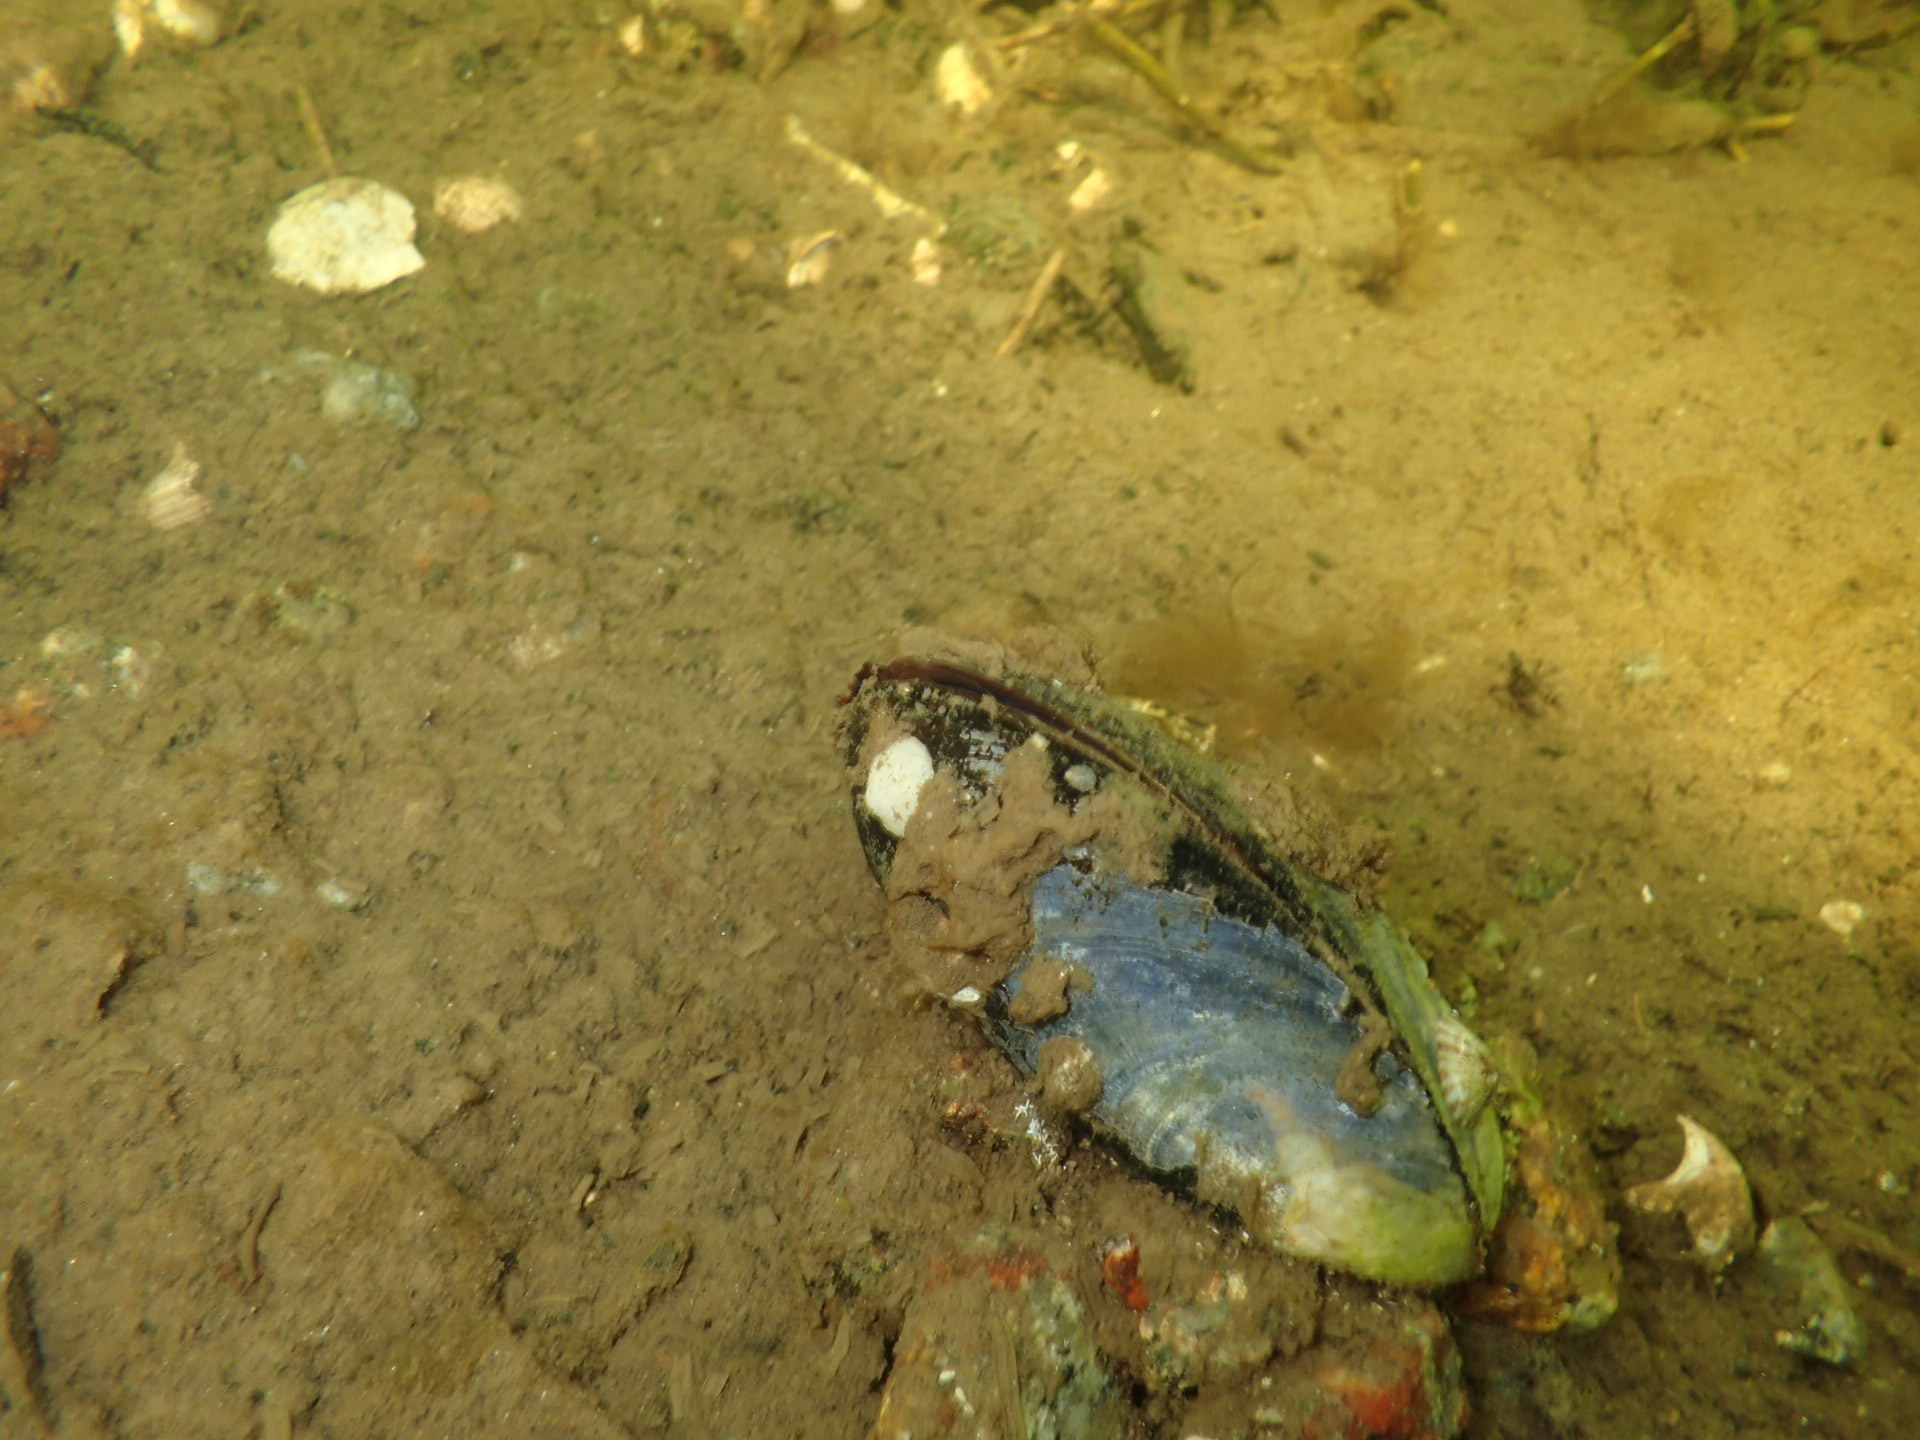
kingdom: Animalia
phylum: Mollusca
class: Bivalvia
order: Mytilida
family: Mytilidae
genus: Mytilus
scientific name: Mytilus edulis
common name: Blue mussel
